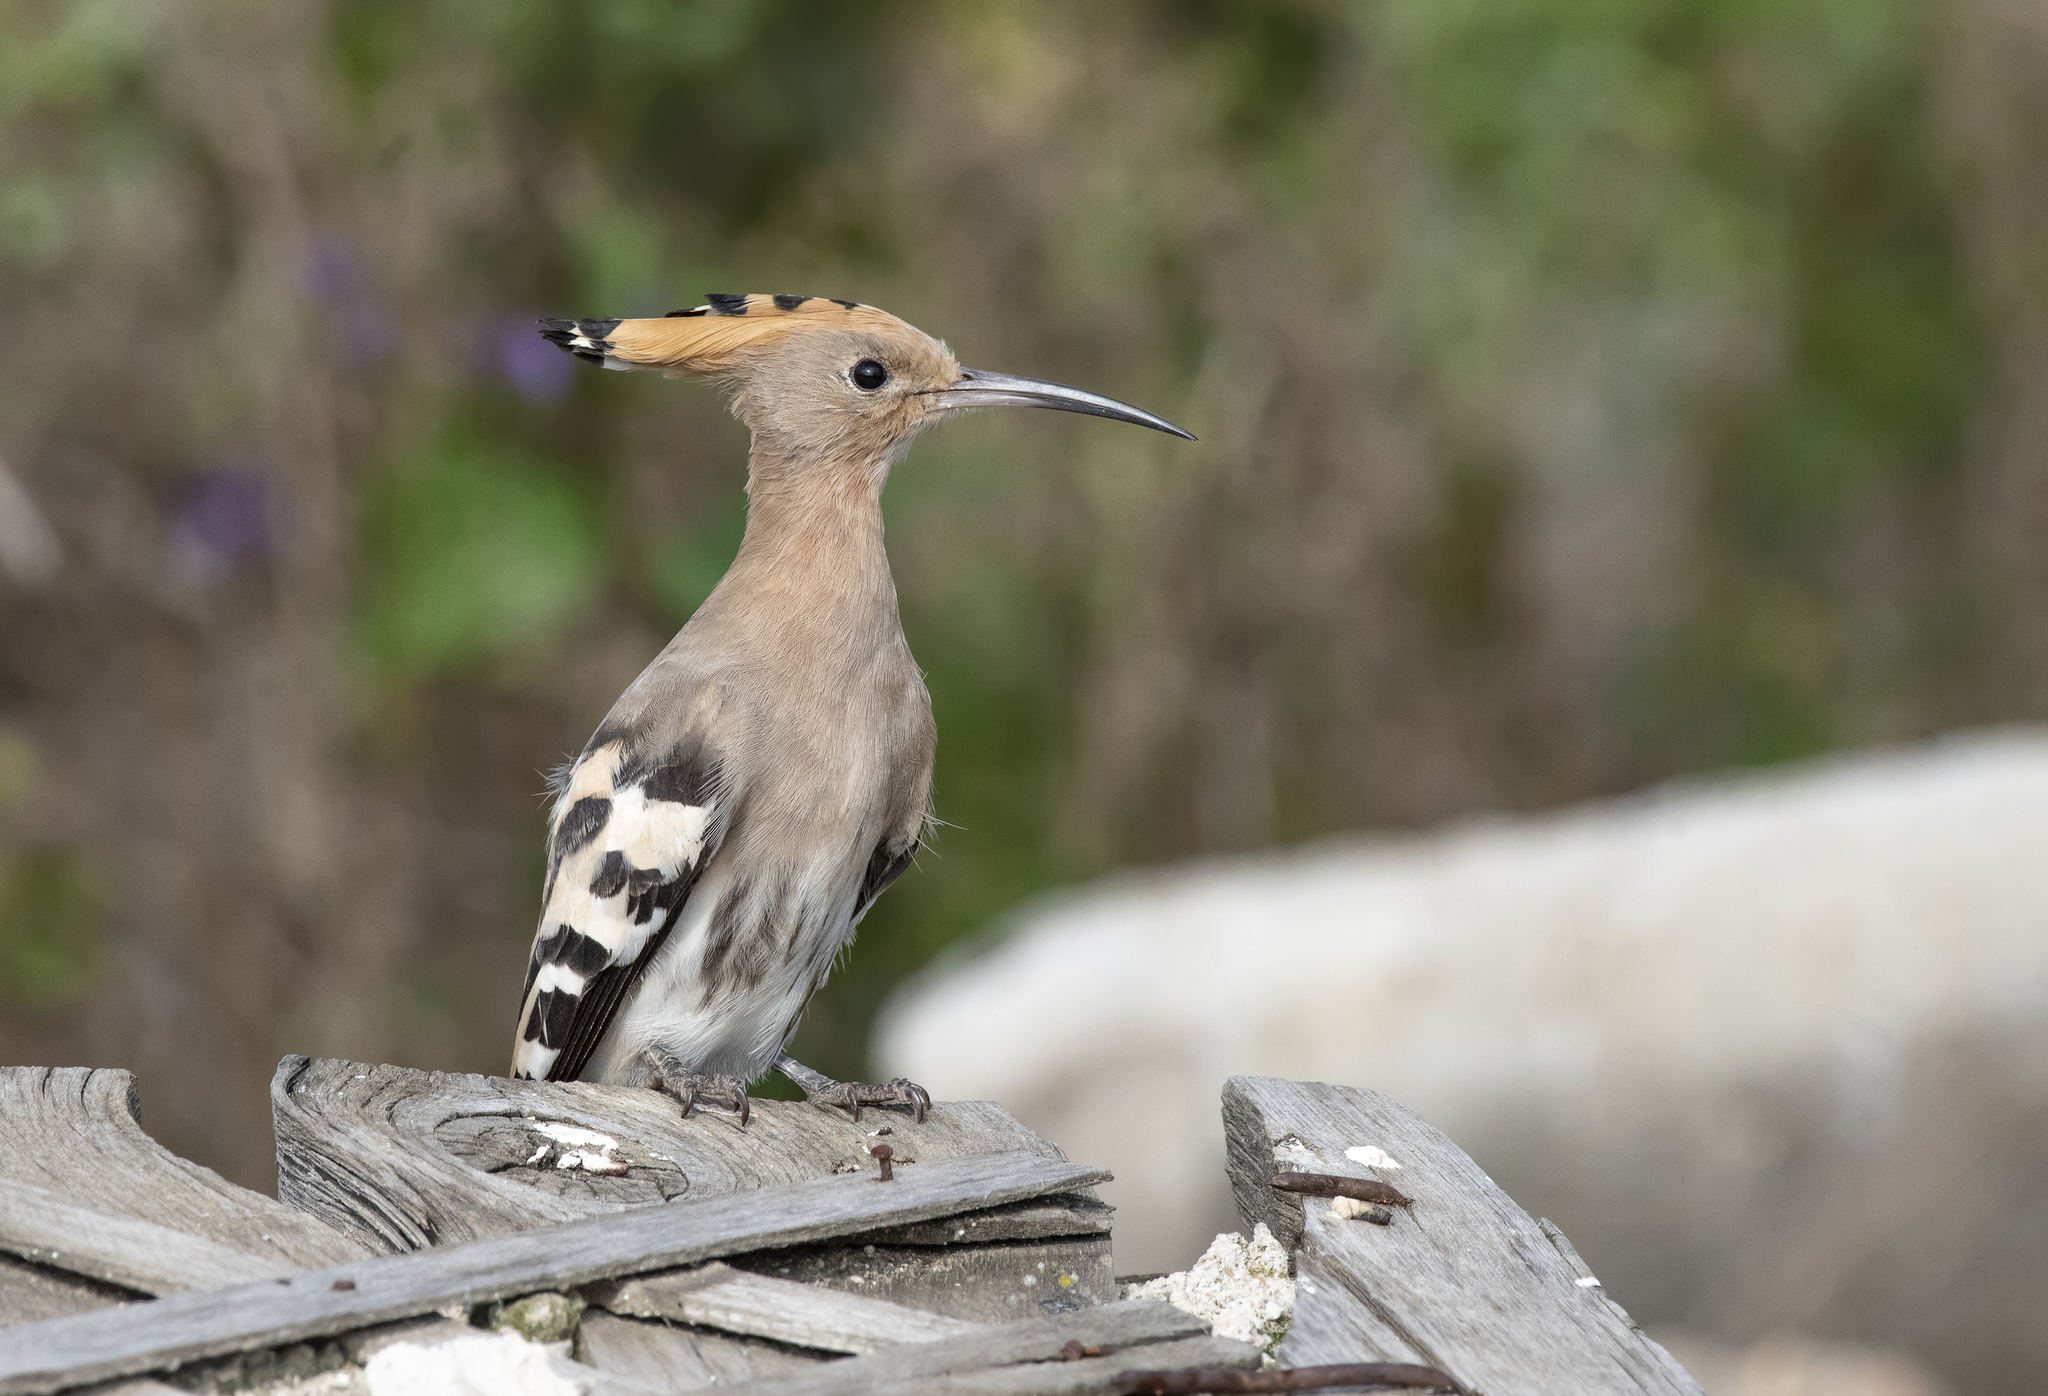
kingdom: Animalia
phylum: Chordata
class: Aves
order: Bucerotiformes
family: Upupidae
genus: Upupa
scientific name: Upupa epops
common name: Eurasian hoopoe
